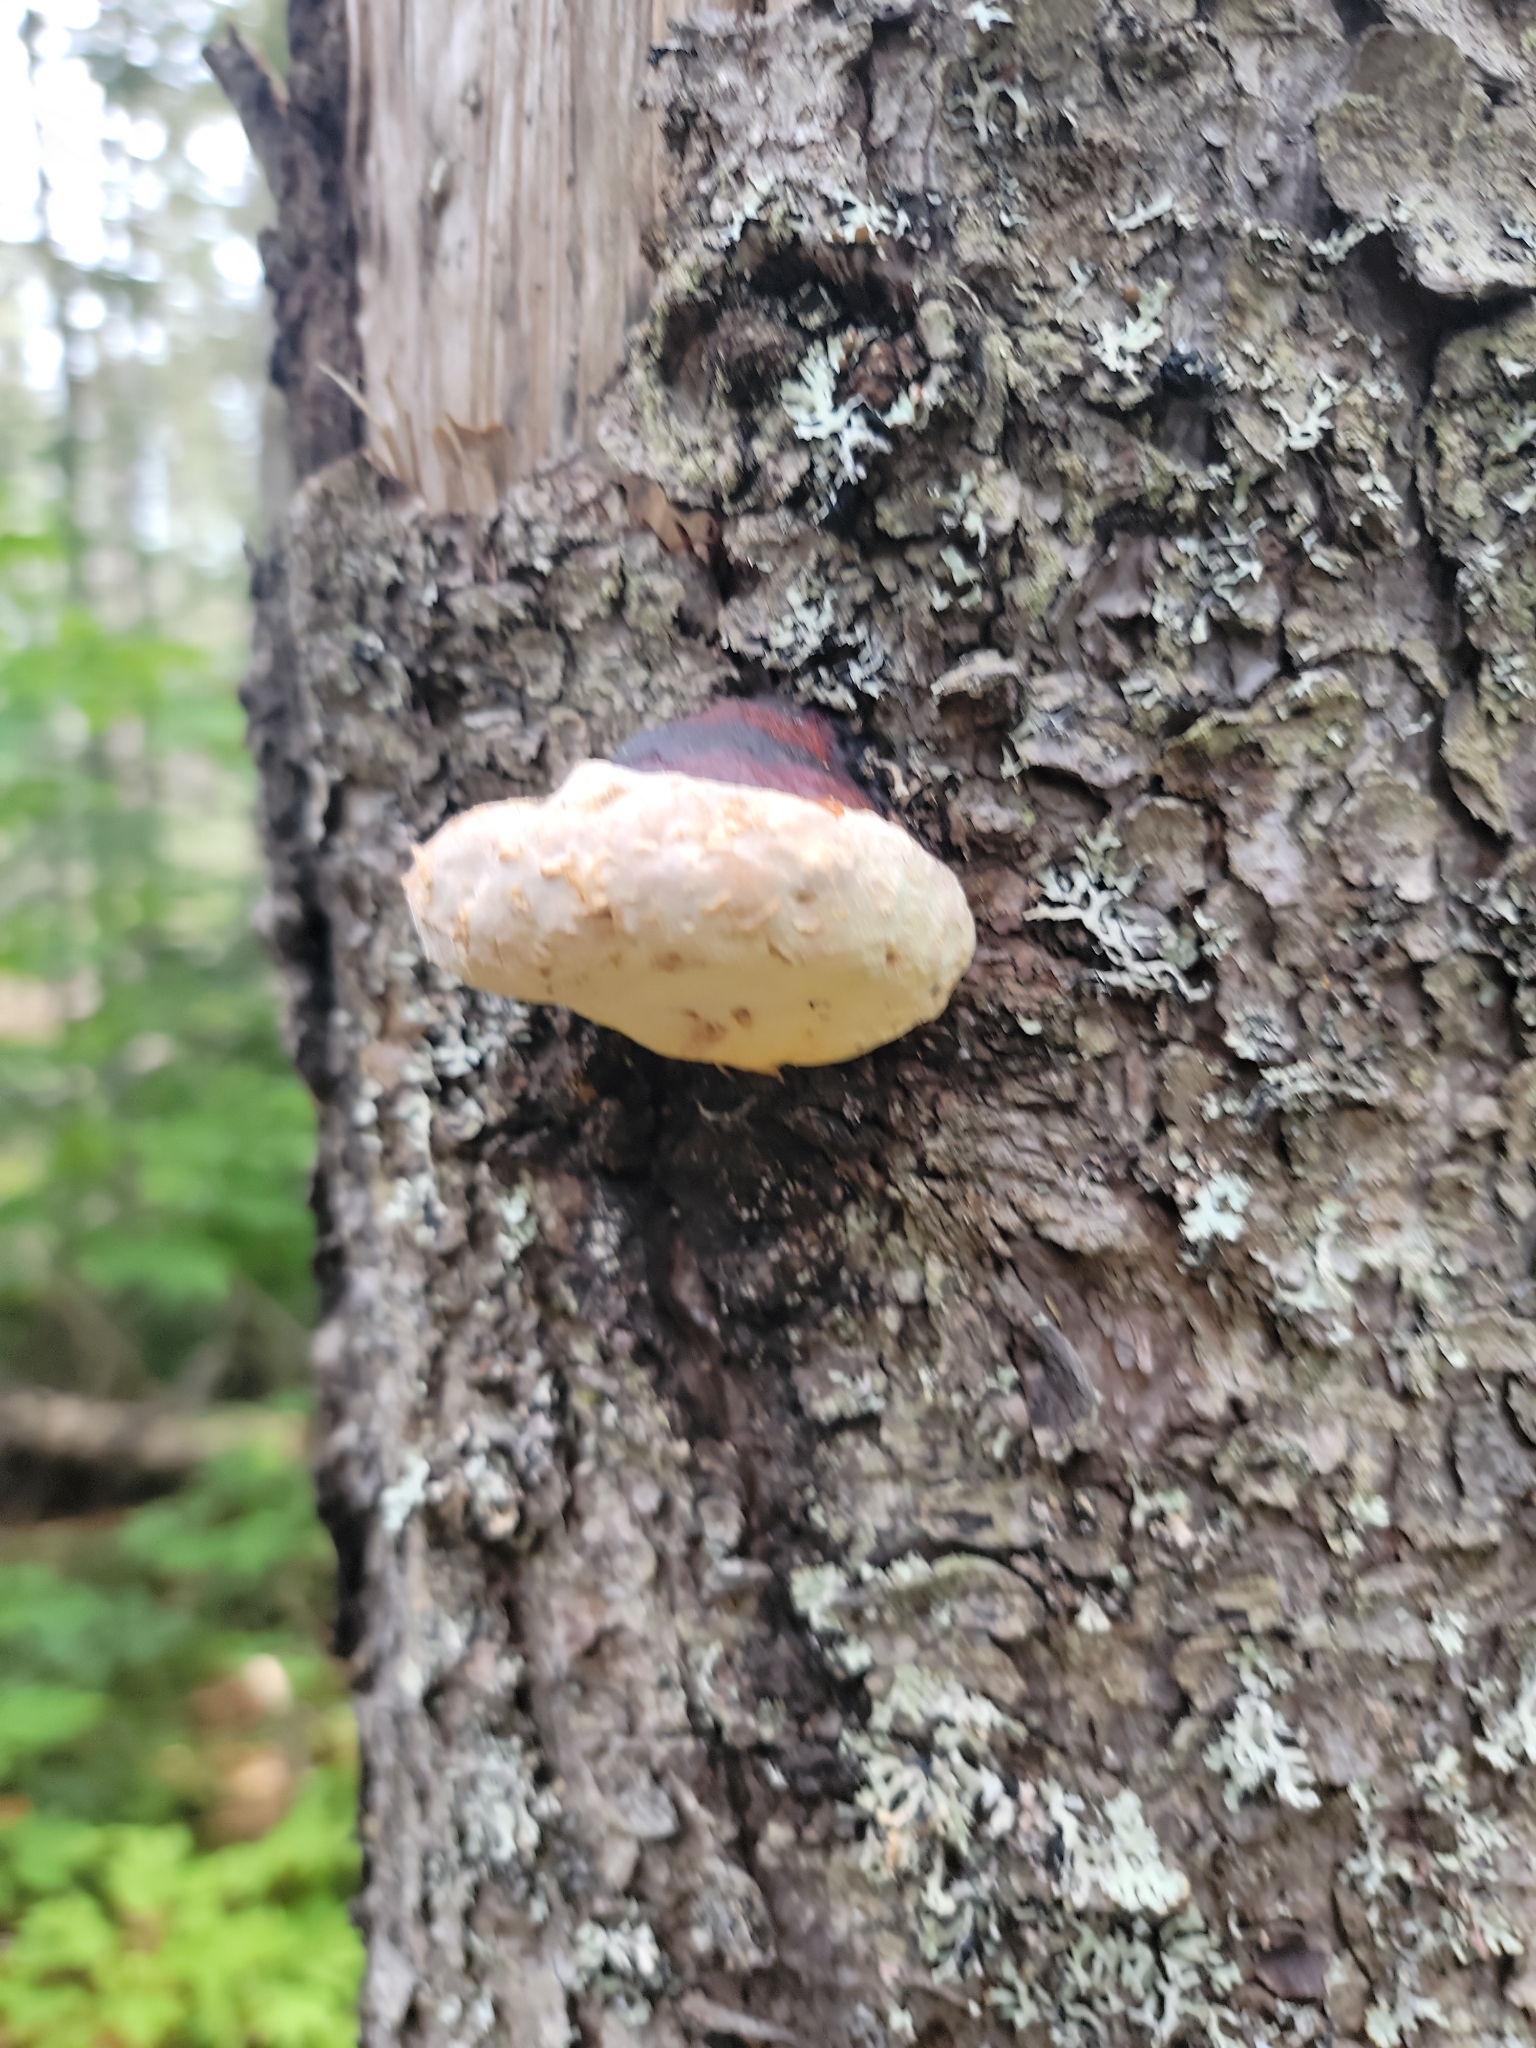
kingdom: Fungi
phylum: Basidiomycota
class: Agaricomycetes
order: Polyporales
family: Fomitopsidaceae
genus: Fomitopsis
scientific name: Fomitopsis mounceae
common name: Northern red belt
